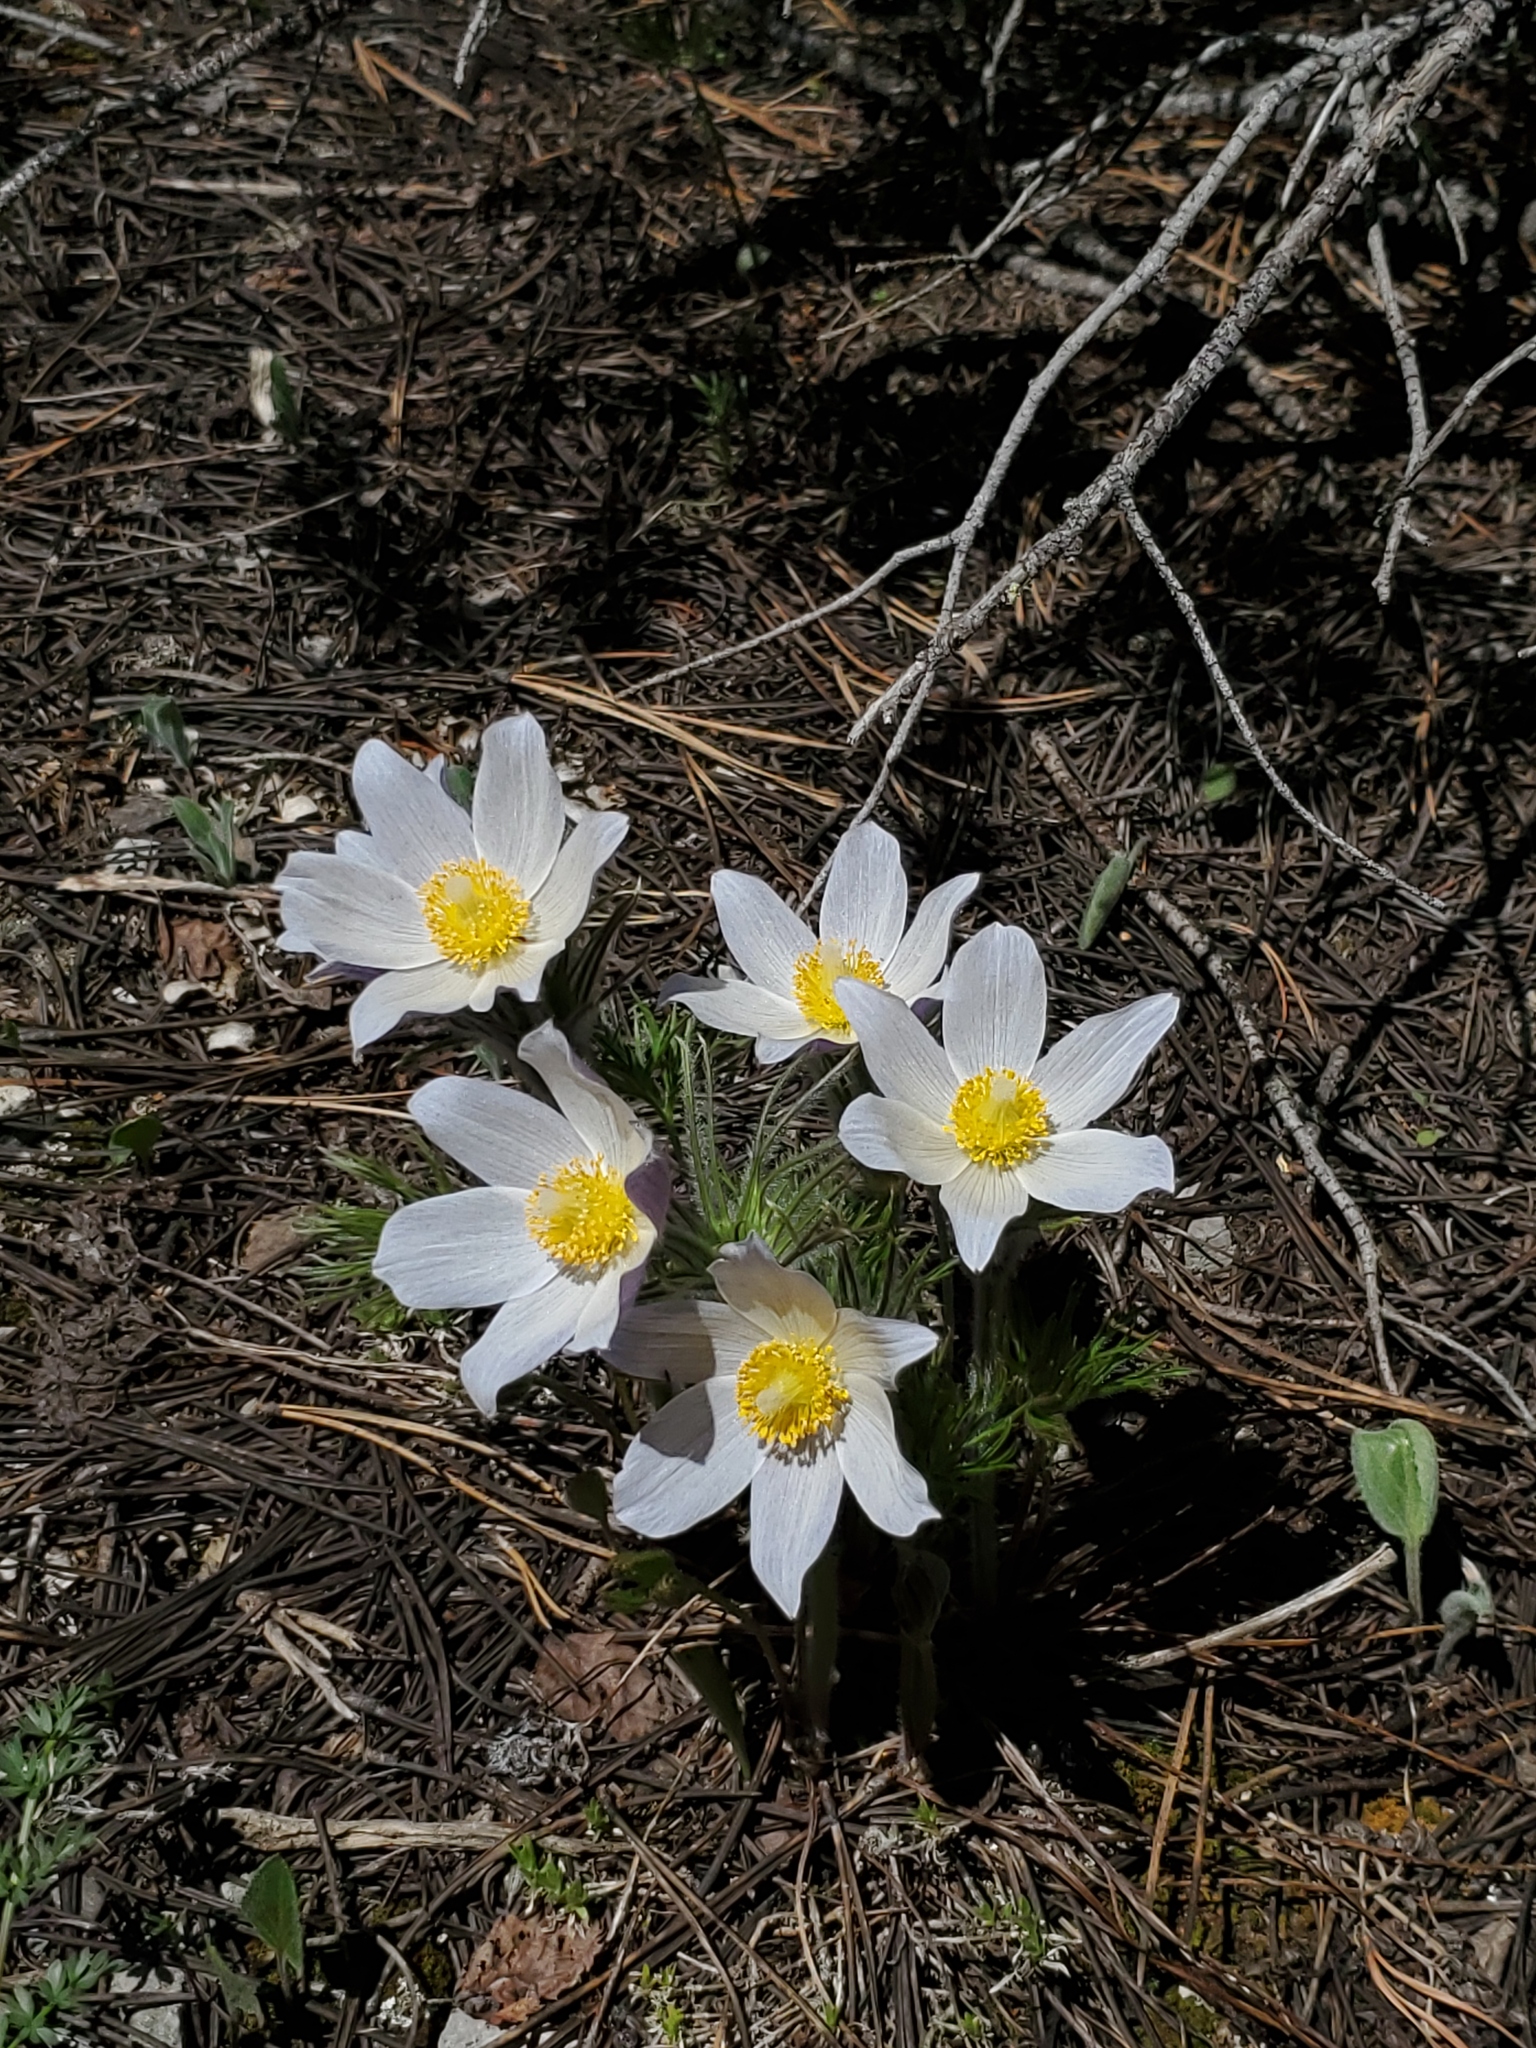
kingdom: Plantae
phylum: Tracheophyta
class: Magnoliopsida
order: Ranunculales
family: Ranunculaceae
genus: Pulsatilla
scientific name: Pulsatilla nuttalliana
